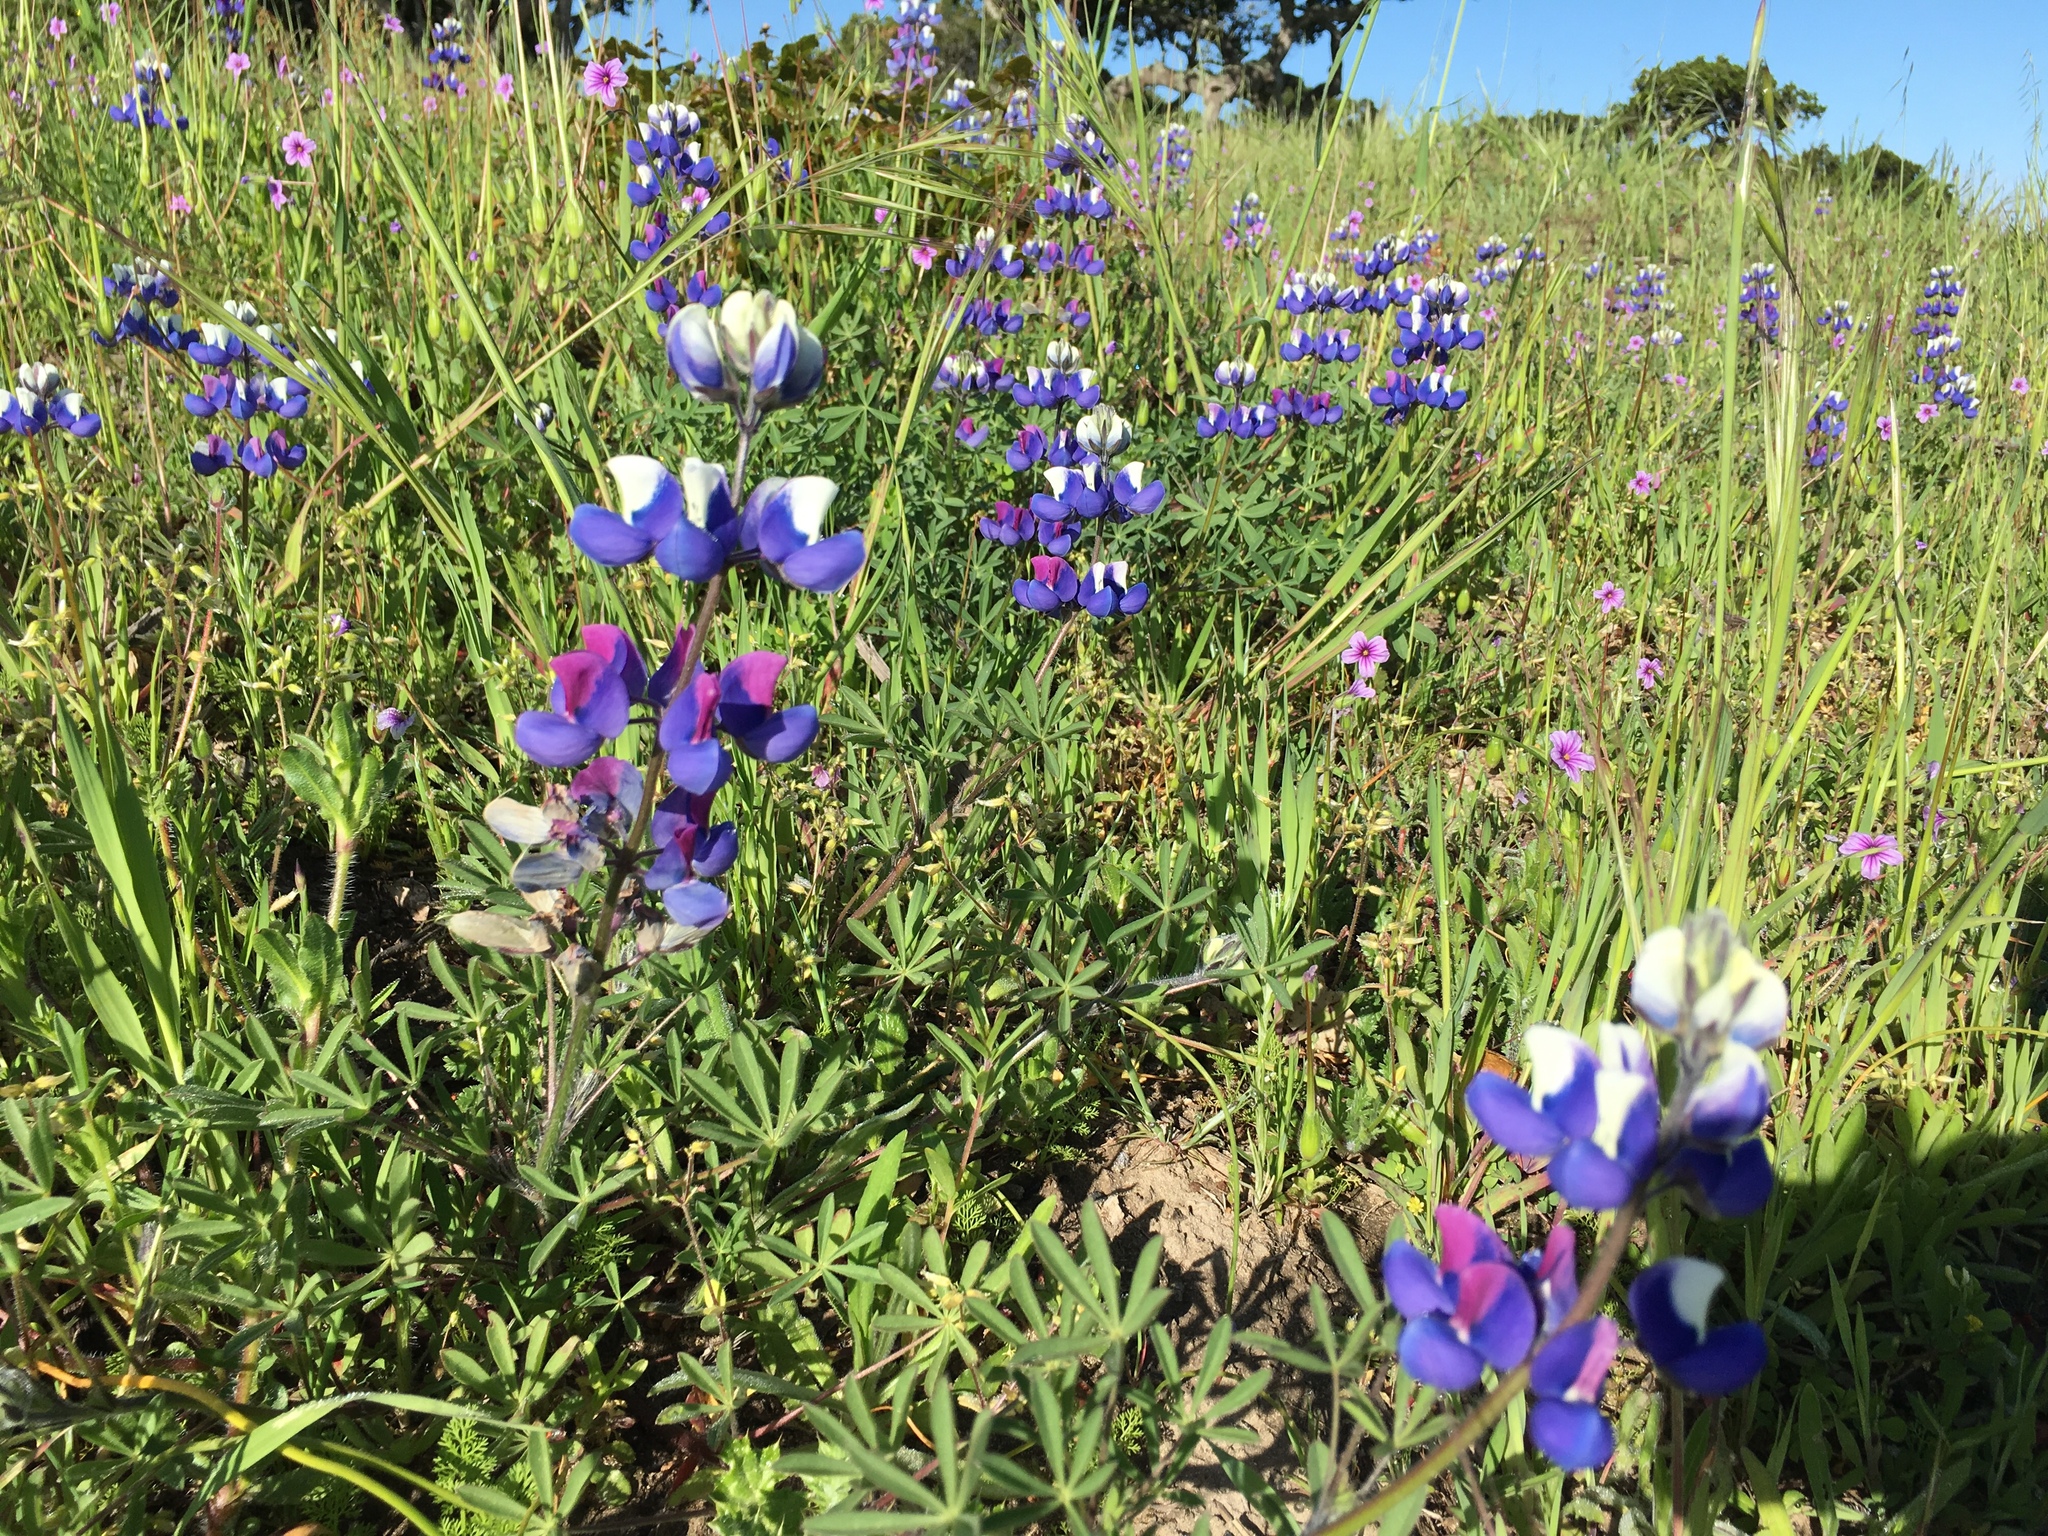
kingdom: Plantae
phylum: Tracheophyta
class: Magnoliopsida
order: Fabales
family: Fabaceae
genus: Lupinus
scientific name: Lupinus nanus
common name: Orean blue lupin
